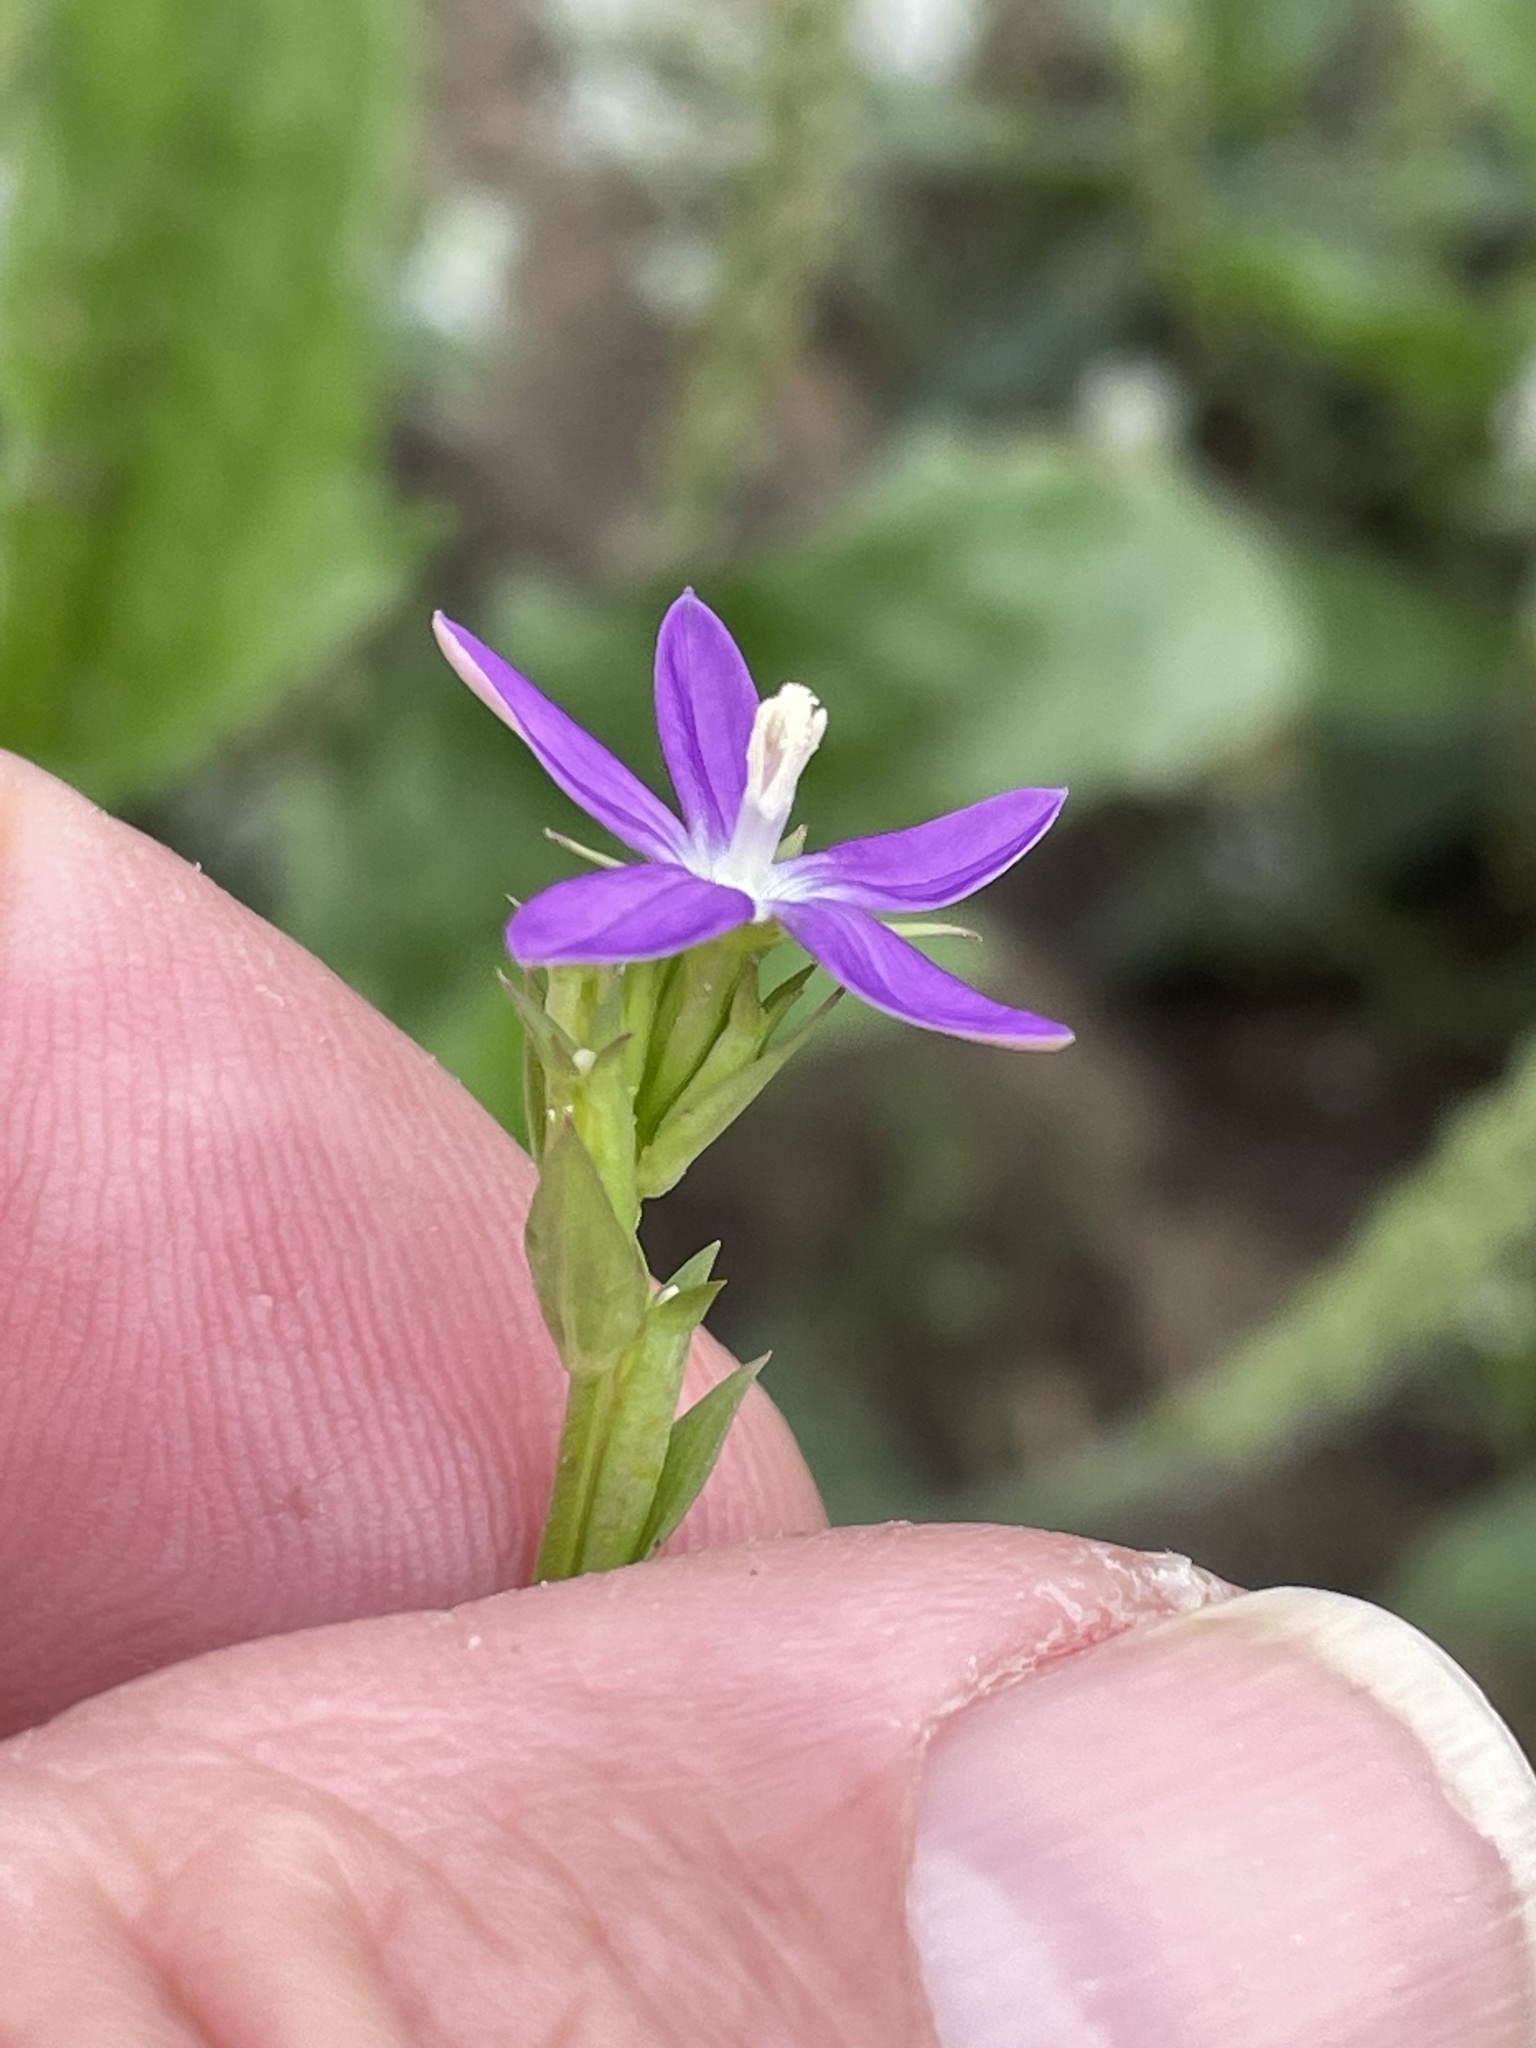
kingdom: Plantae
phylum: Tracheophyta
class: Magnoliopsida
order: Asterales
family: Campanulaceae
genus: Triodanis
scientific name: Triodanis biflora
